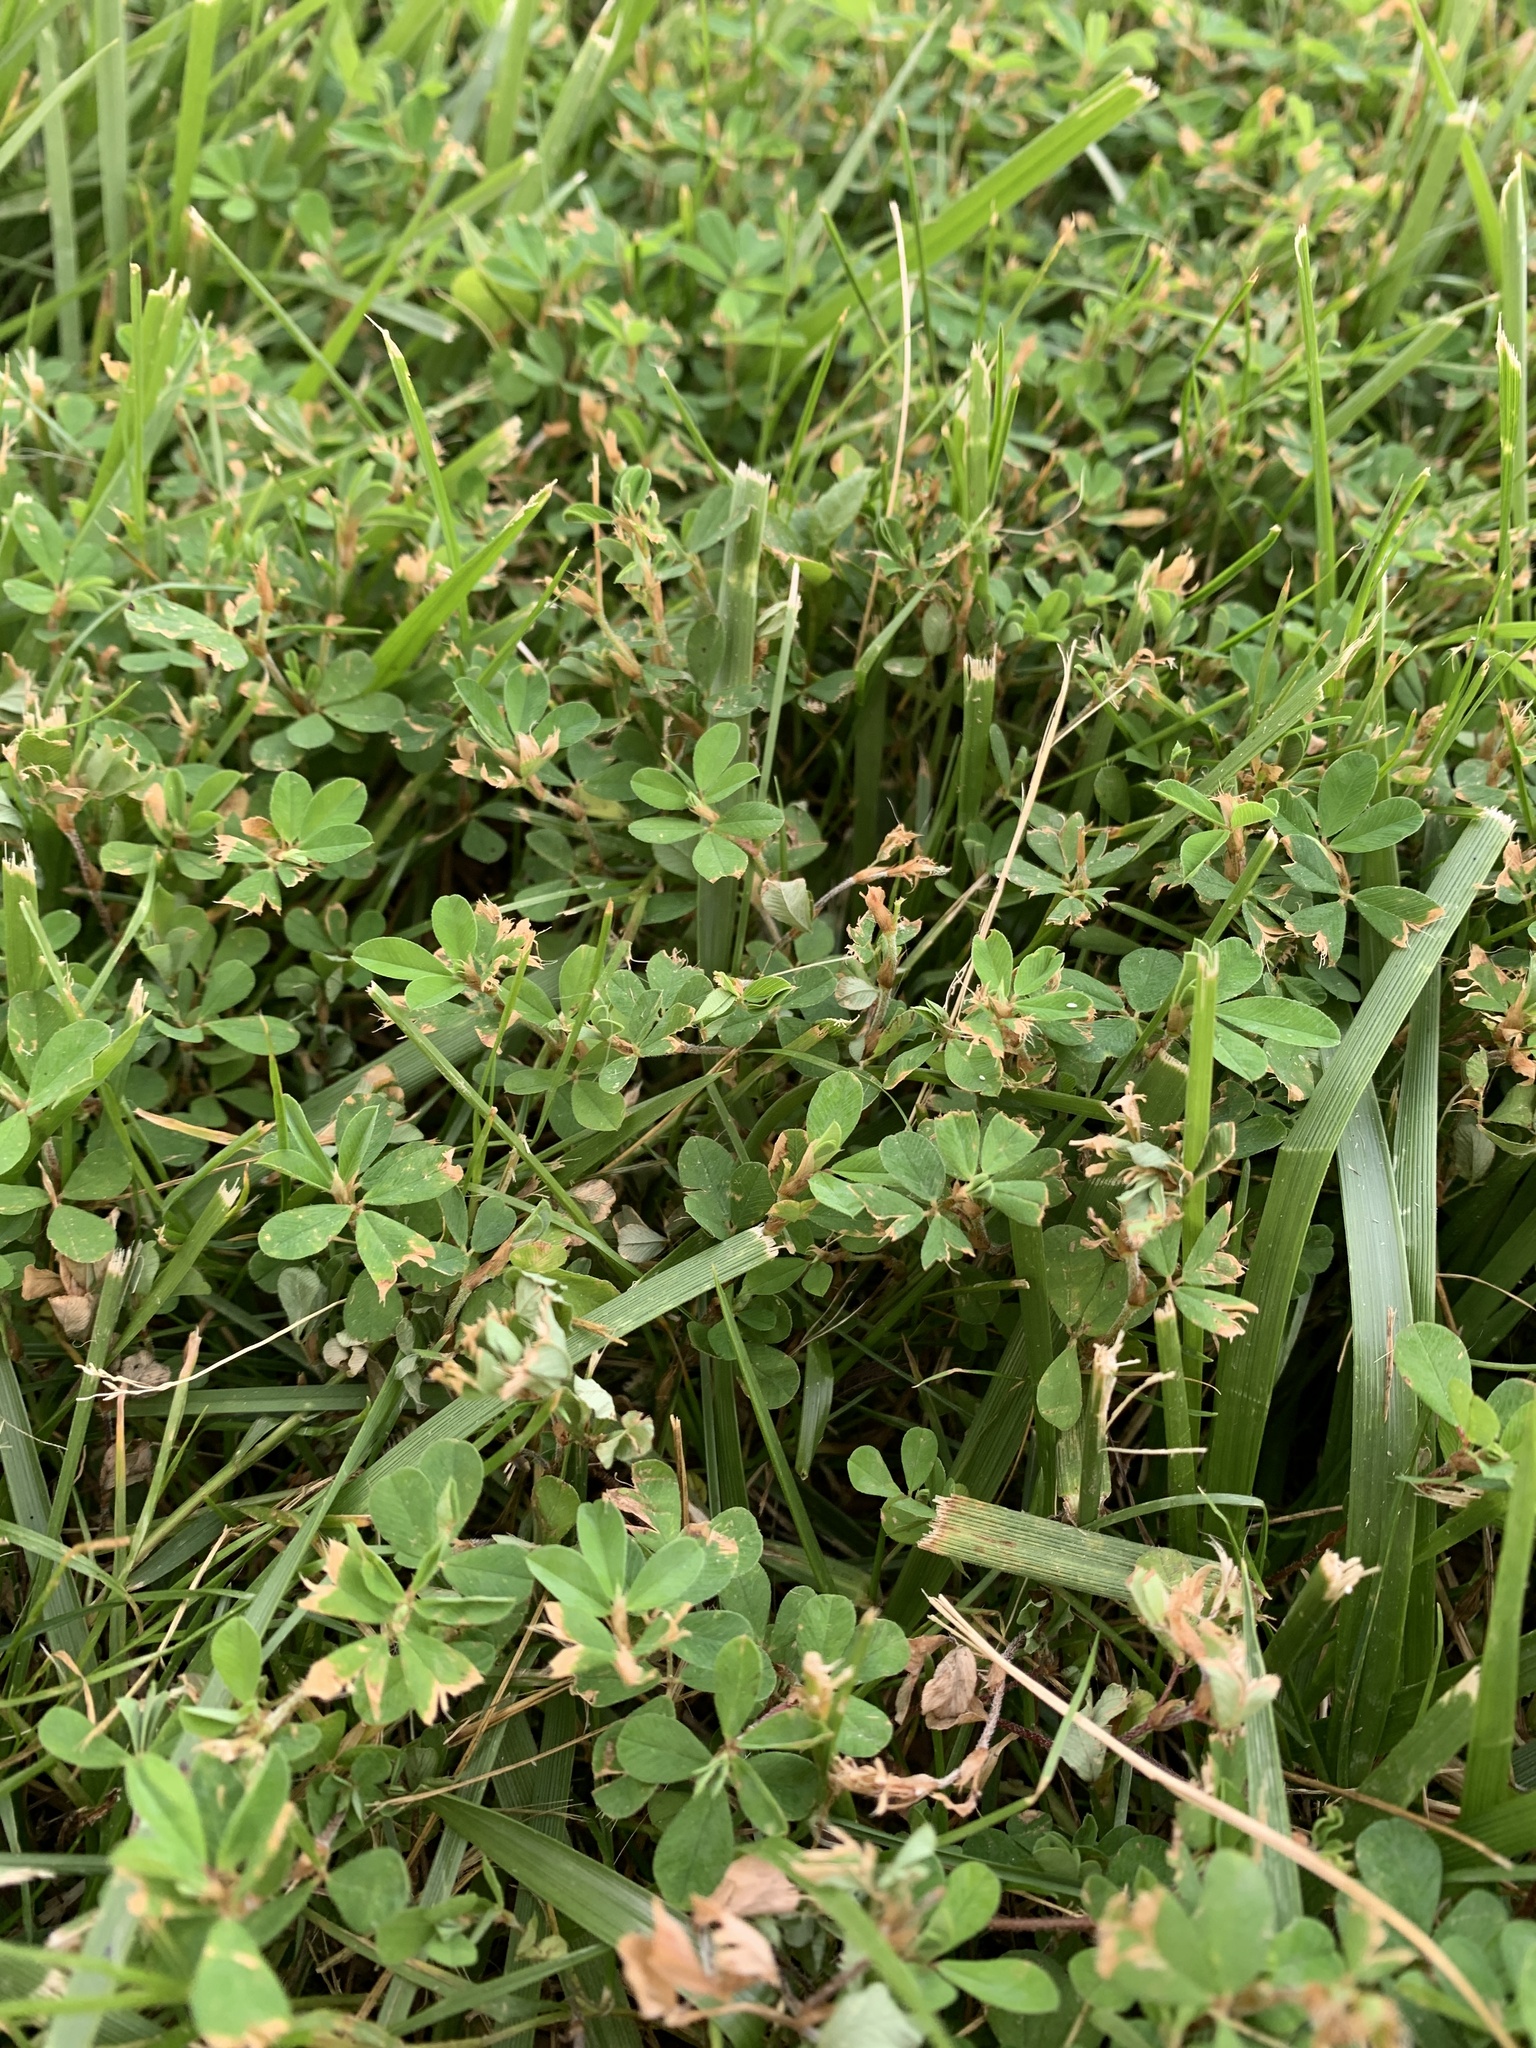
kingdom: Plantae
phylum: Tracheophyta
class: Magnoliopsida
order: Fabales
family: Fabaceae
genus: Kummerowia
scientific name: Kummerowia striata
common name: Japanese clover
